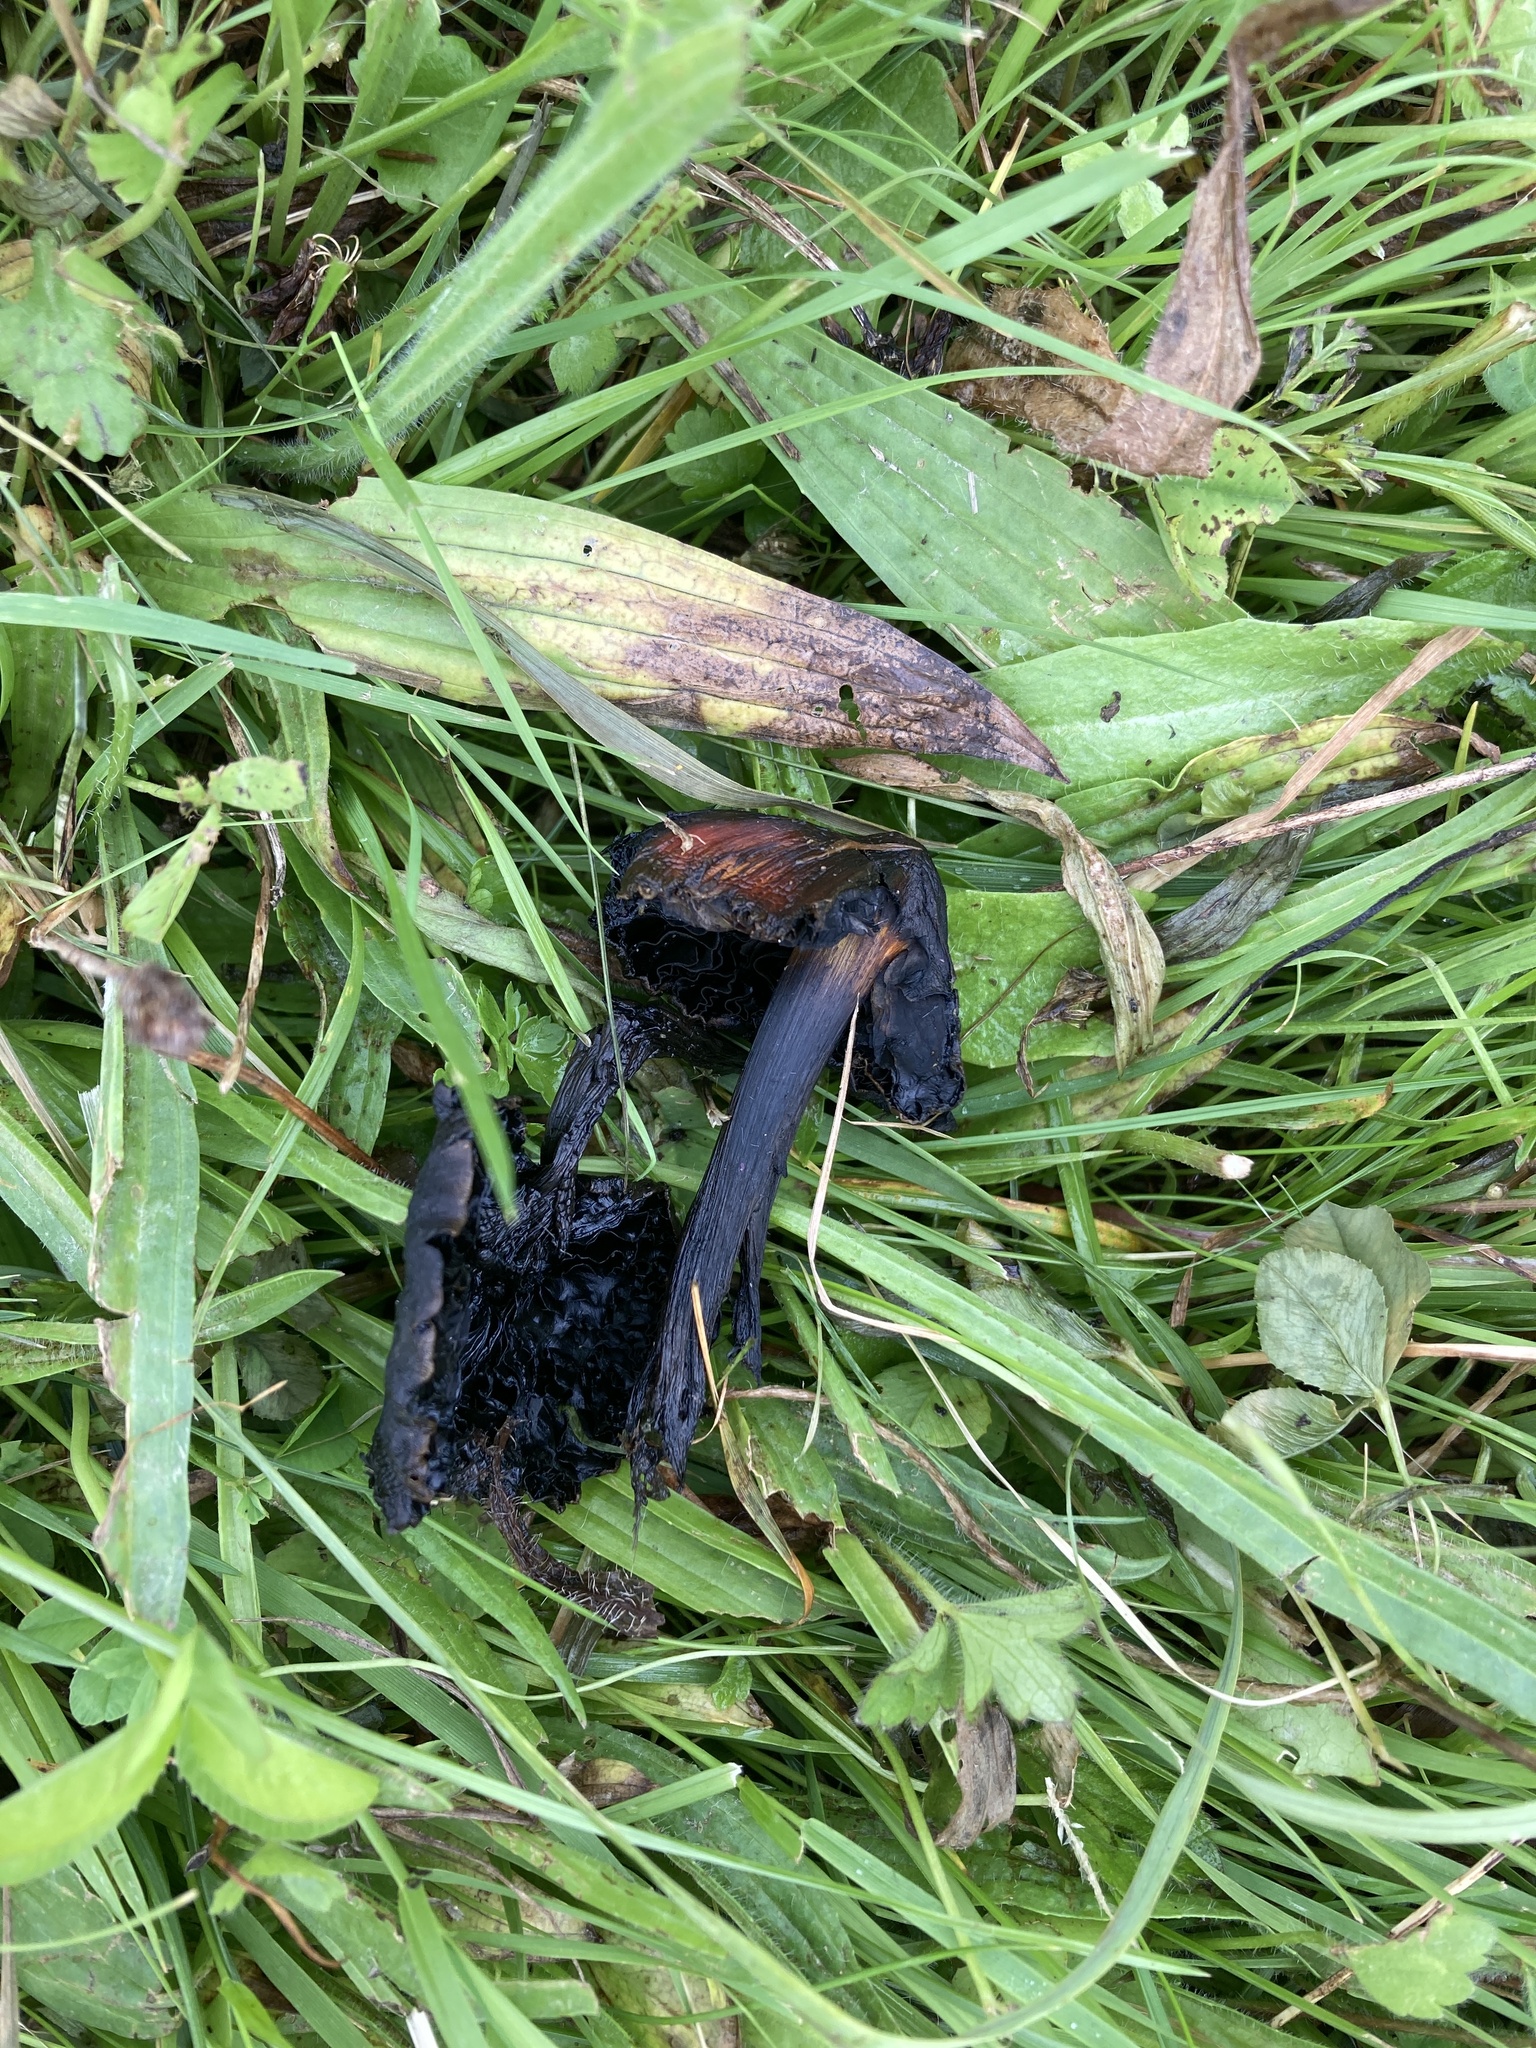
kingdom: Fungi
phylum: Basidiomycota
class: Agaricomycetes
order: Agaricales
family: Hygrophoraceae
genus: Hygrocybe
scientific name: Hygrocybe conica
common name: Blackening wax-cap
